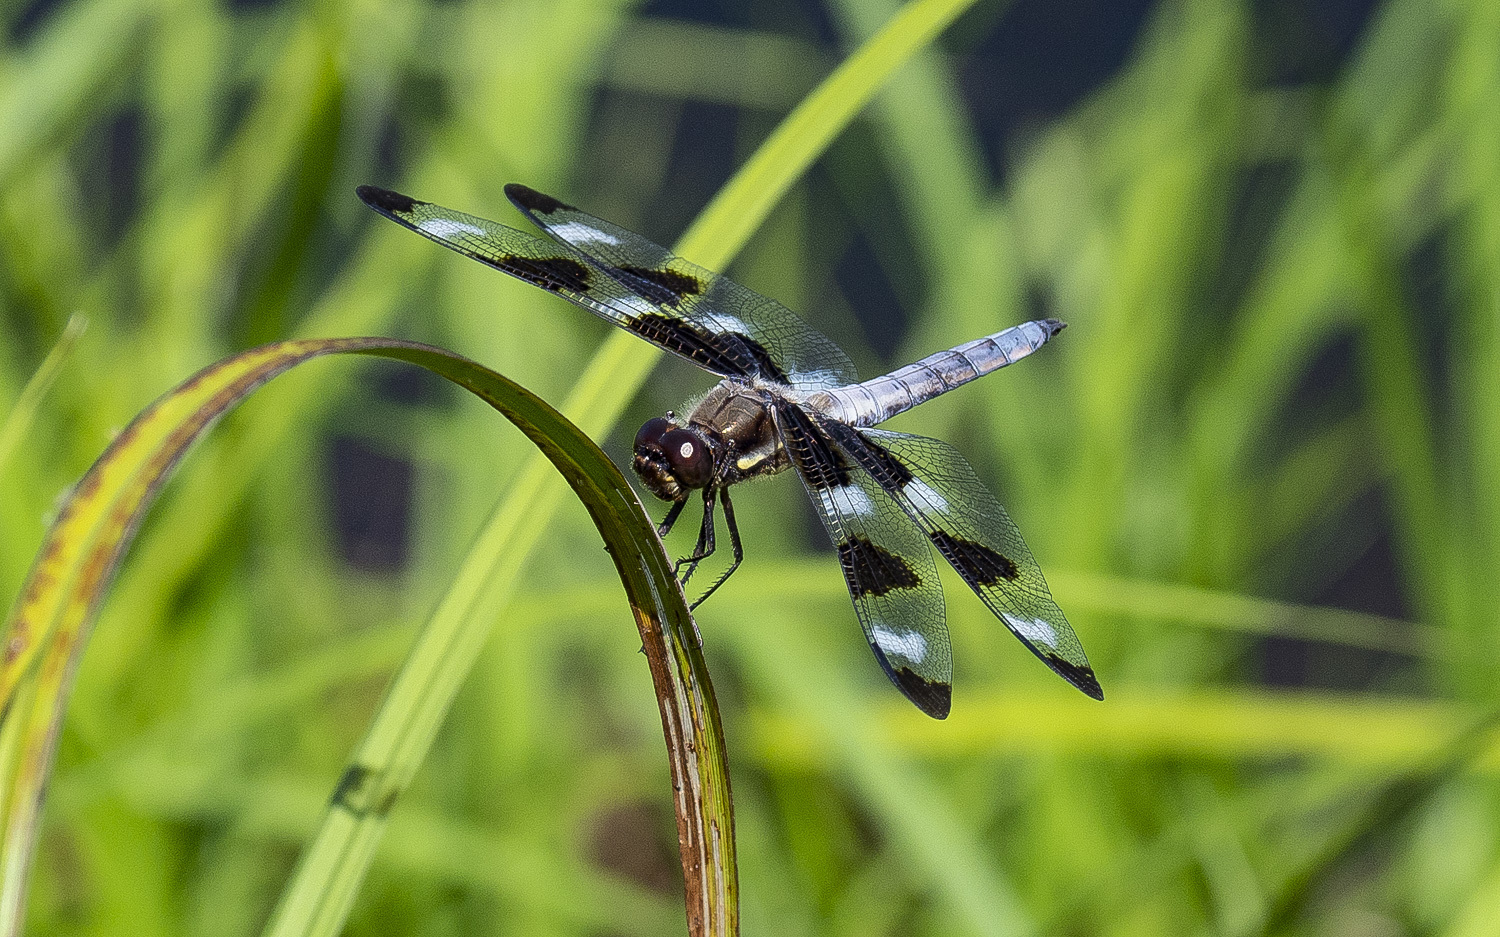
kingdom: Animalia
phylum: Arthropoda
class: Insecta
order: Odonata
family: Libellulidae
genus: Libellula
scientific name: Libellula pulchella
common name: Twelve-spotted skimmer
